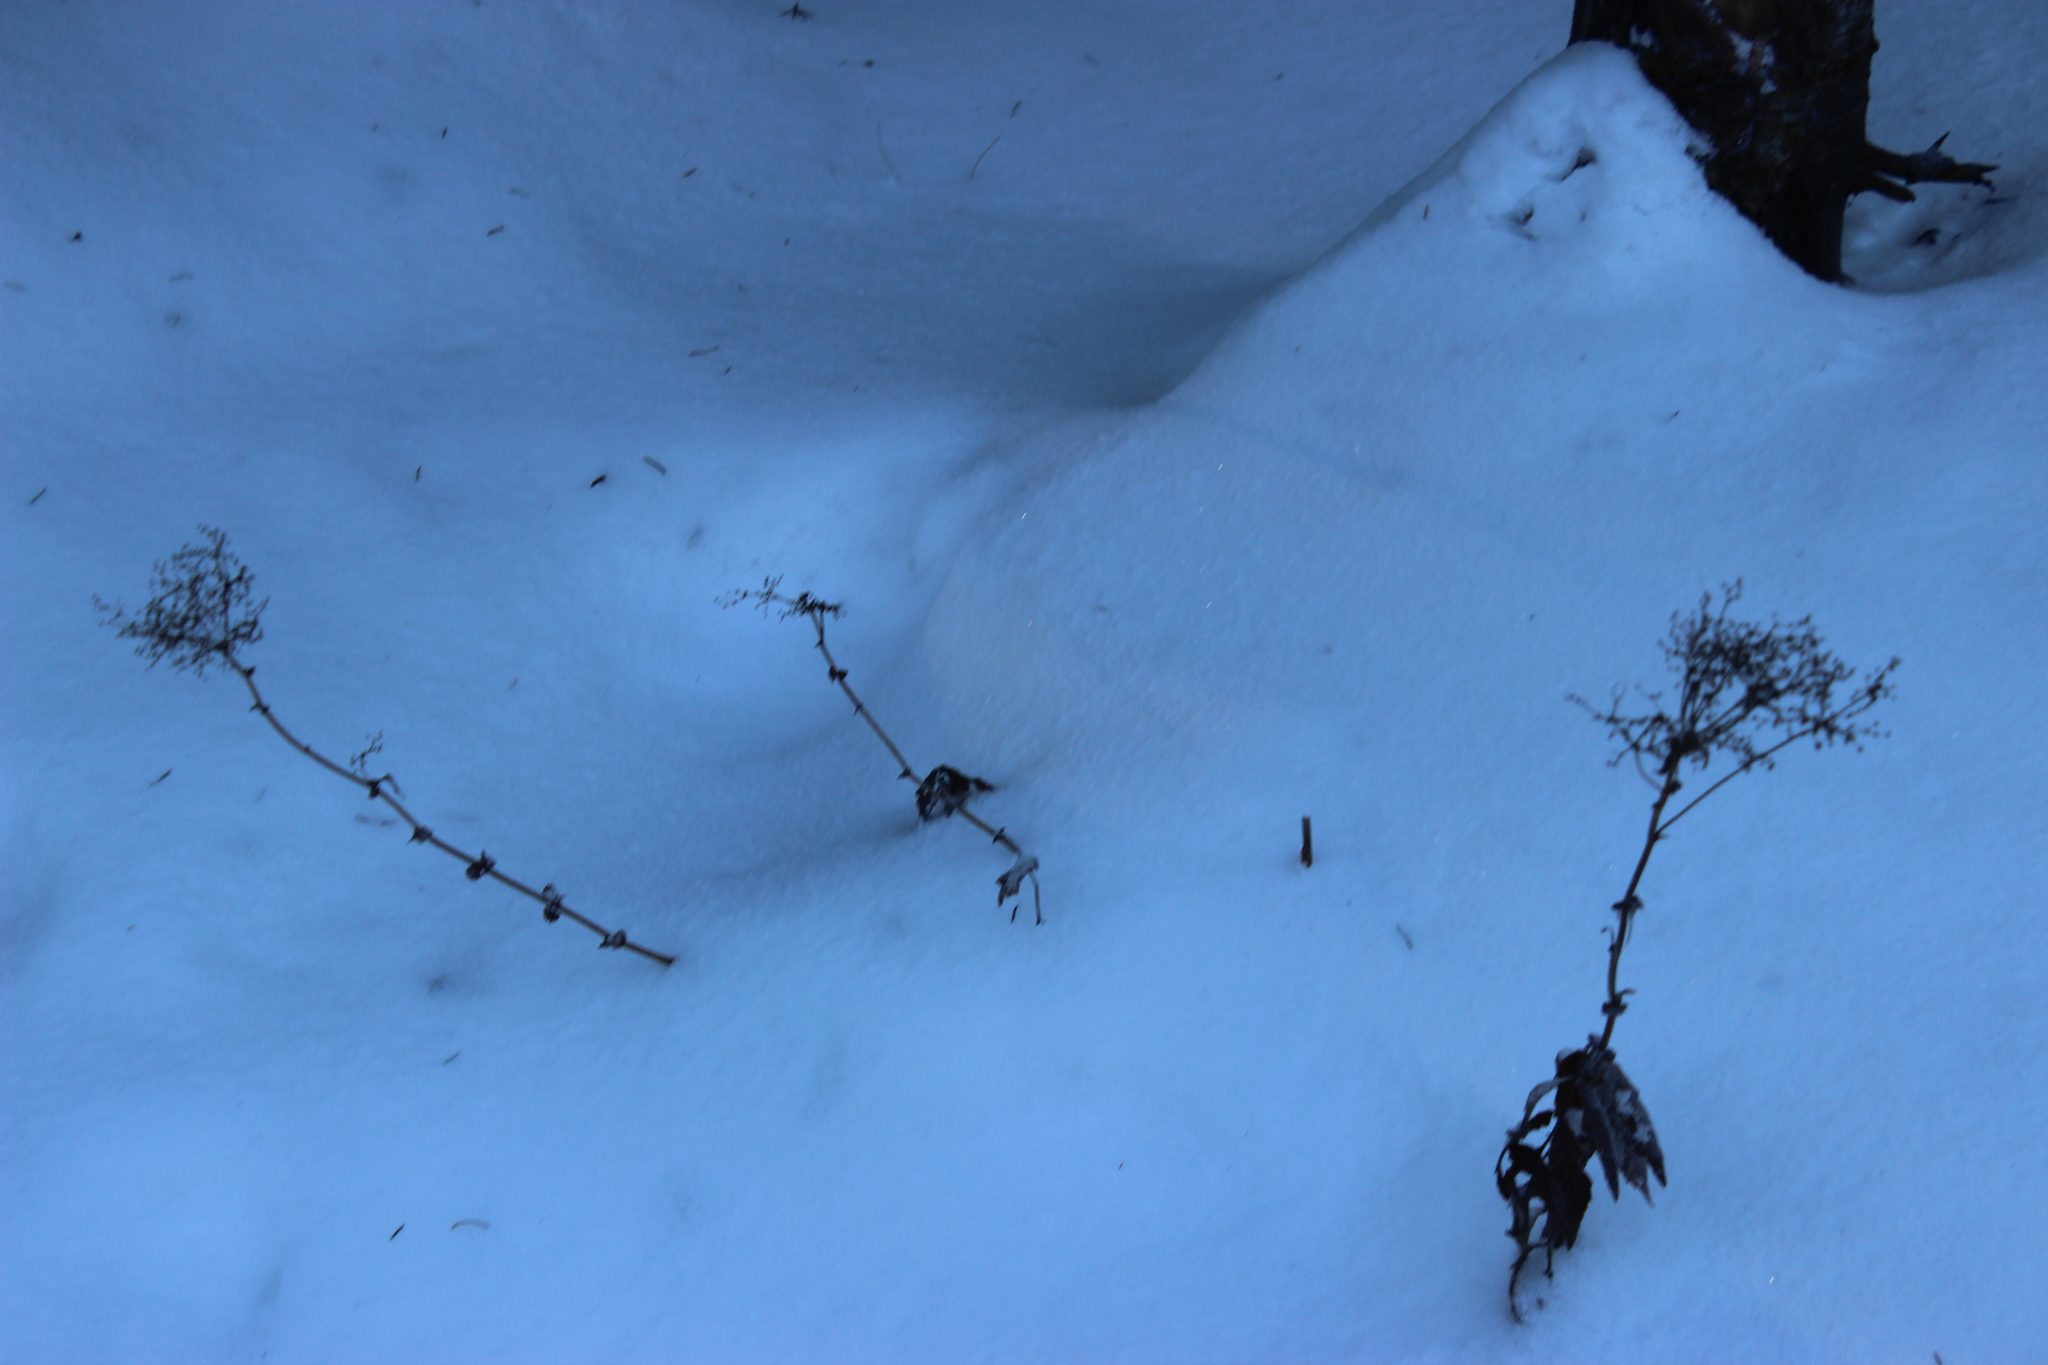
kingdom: Plantae
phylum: Tracheophyta
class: Magnoliopsida
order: Rosales
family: Rosaceae
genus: Filipendula
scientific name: Filipendula ulmaria
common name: Meadowsweet
